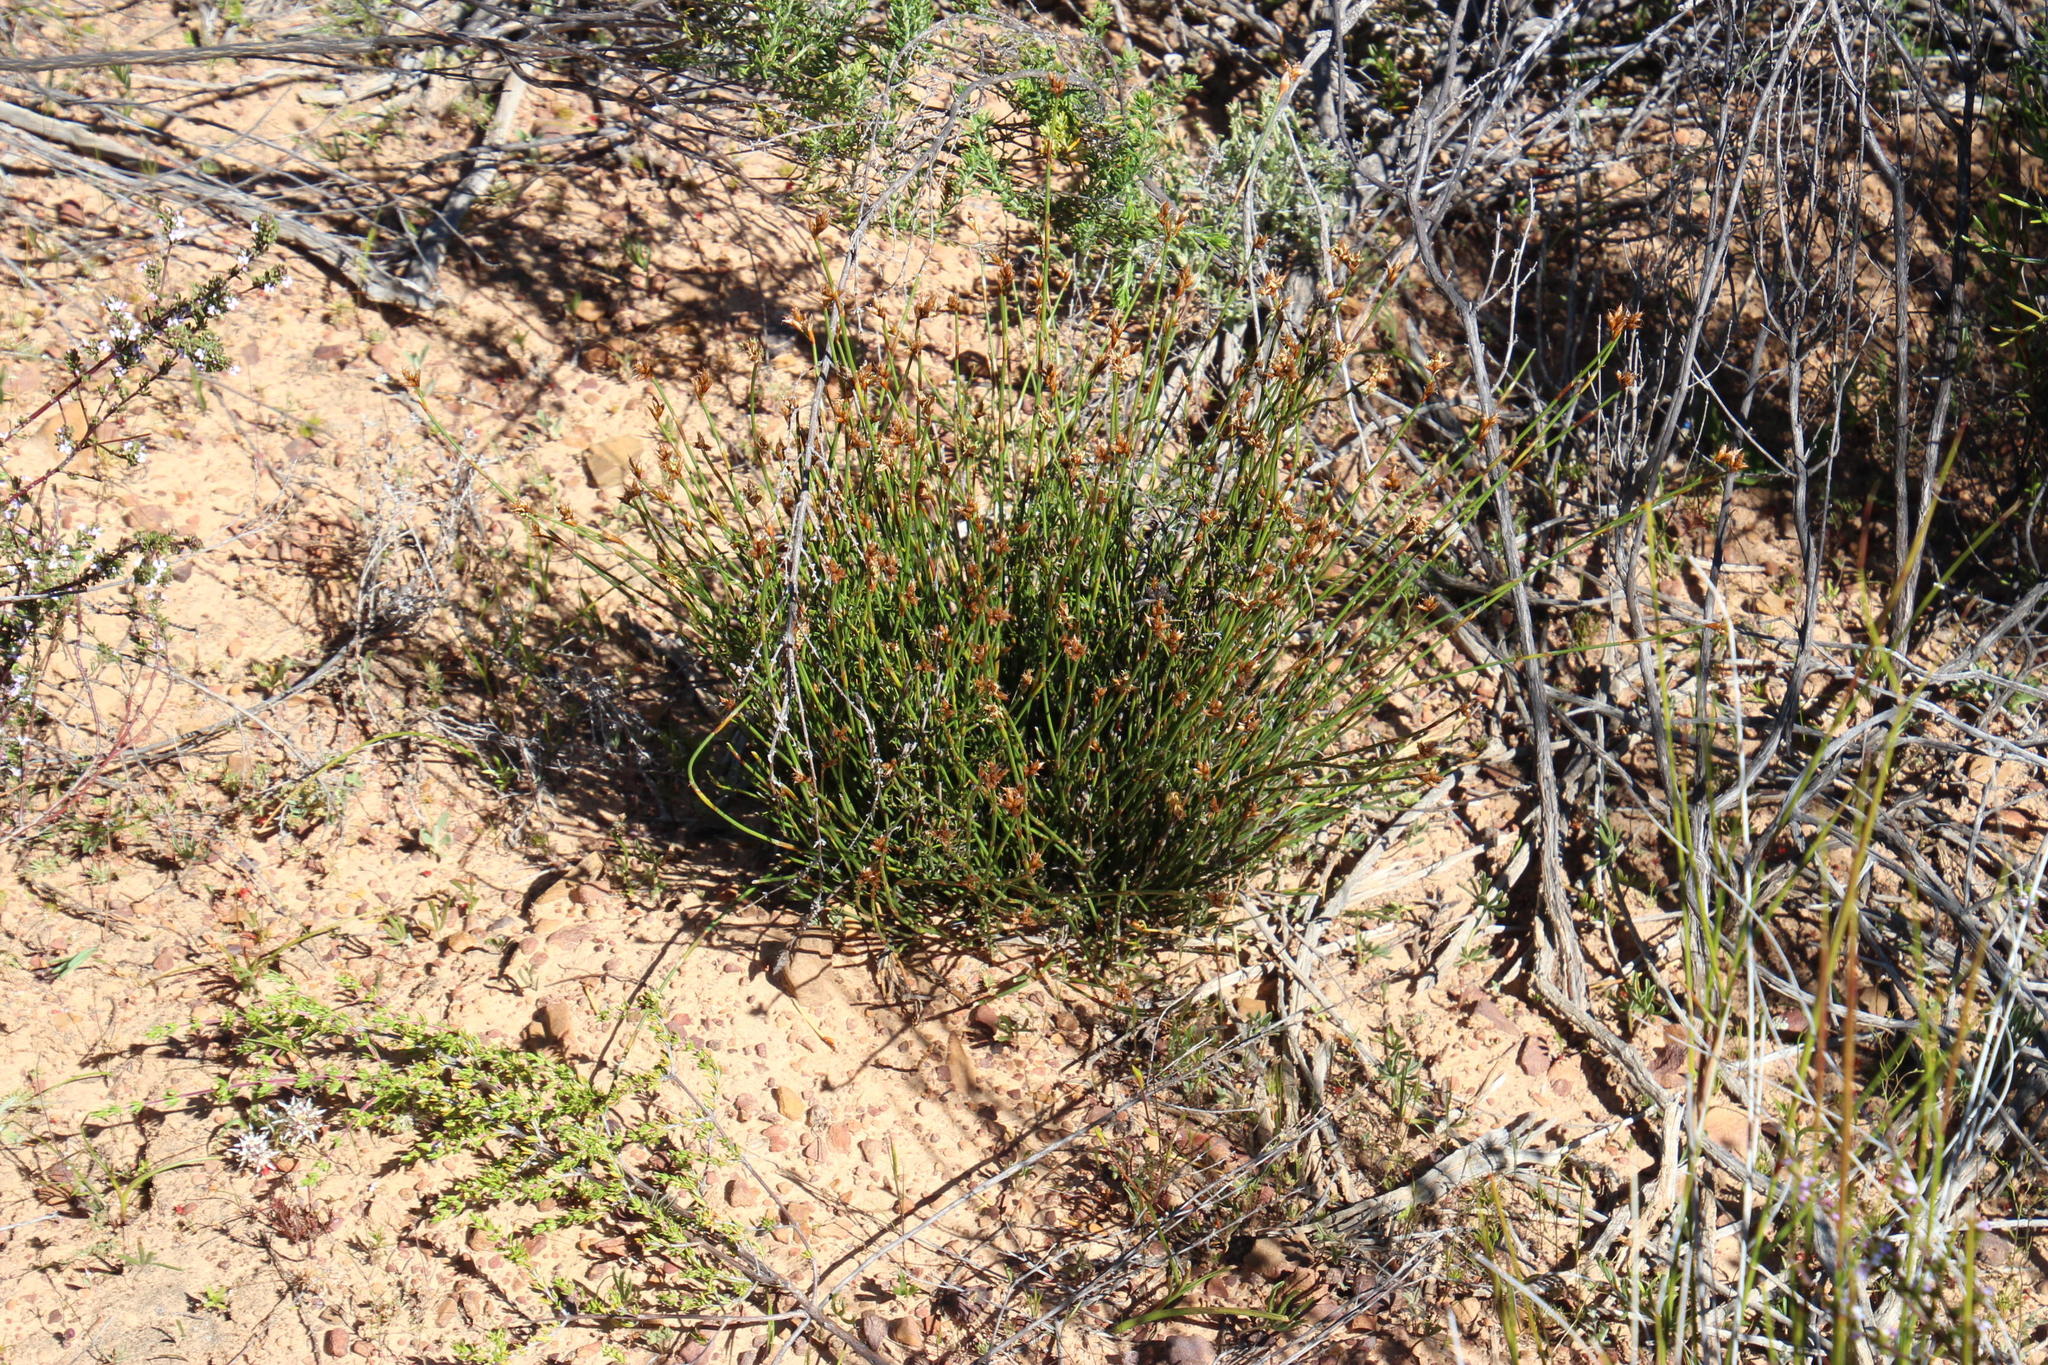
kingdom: Plantae
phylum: Tracheophyta
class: Liliopsida
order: Poales
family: Restionaceae
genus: Restio
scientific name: Restio capensis
